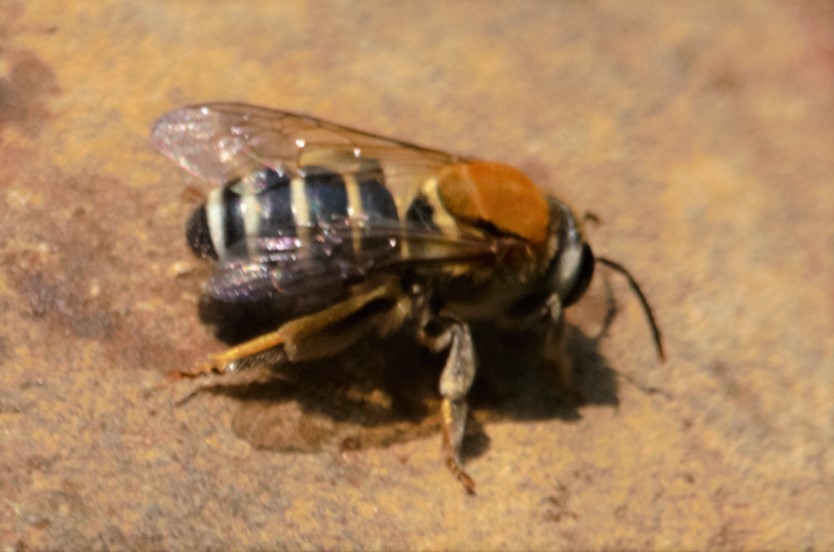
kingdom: Animalia
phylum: Arthropoda
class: Insecta
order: Hymenoptera
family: Halictidae
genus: Nomia
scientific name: Nomia thoracica
